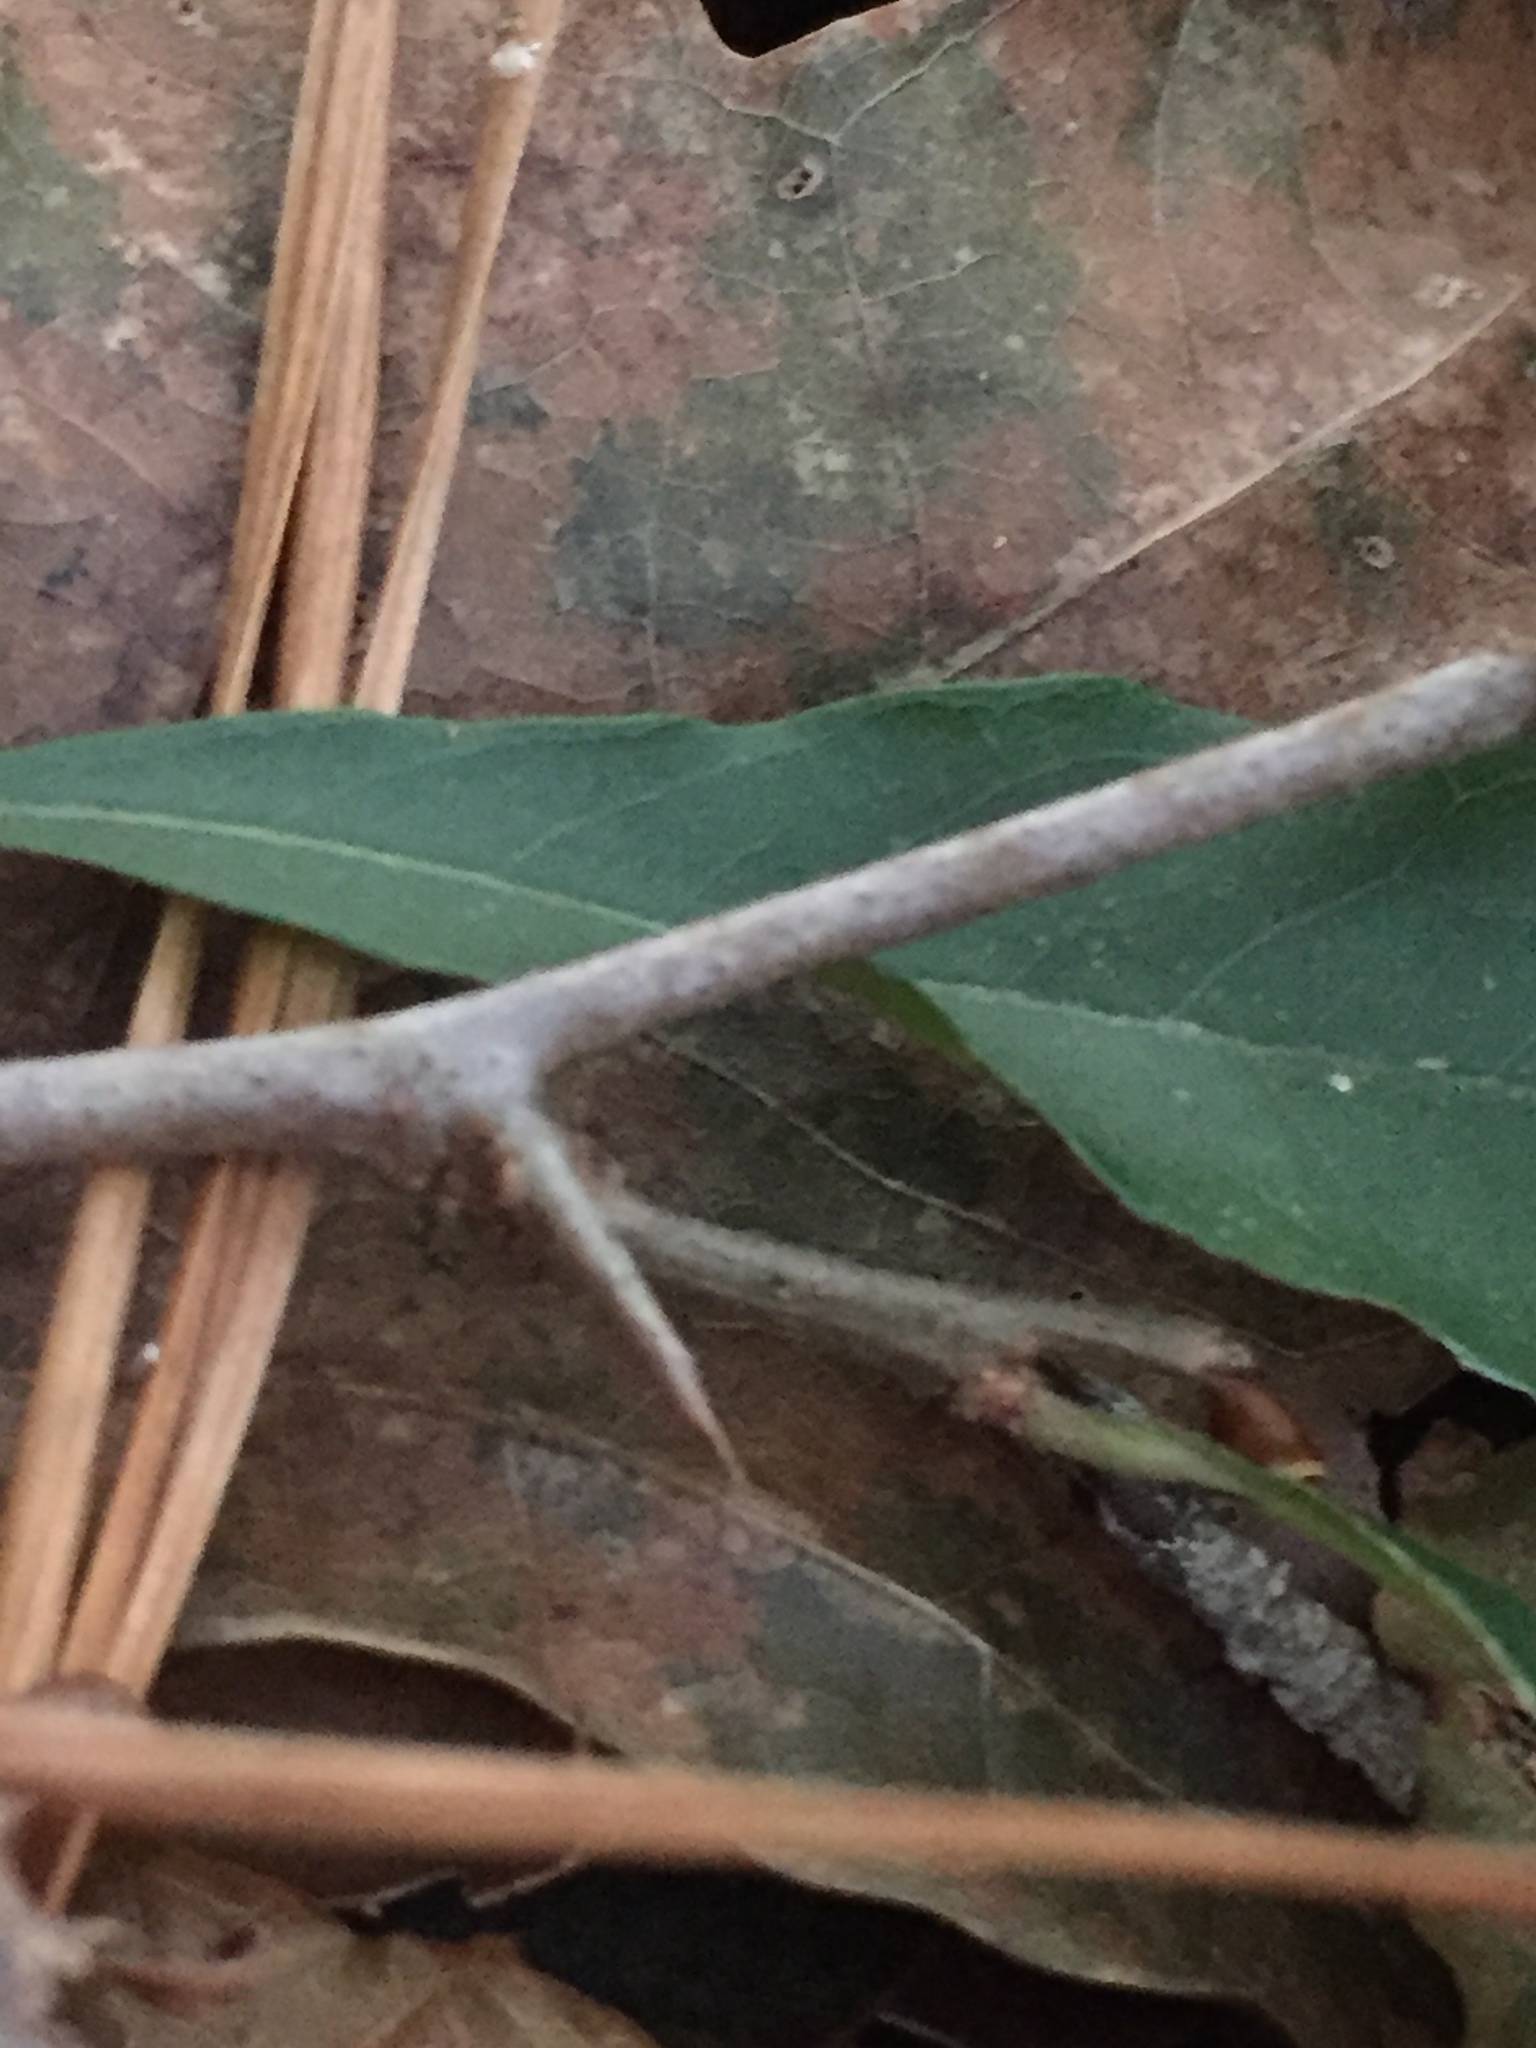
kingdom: Plantae
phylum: Tracheophyta
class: Magnoliopsida
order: Ericales
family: Sapotaceae
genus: Sideroxylon
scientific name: Sideroxylon lanuginosum
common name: Chittamwood
